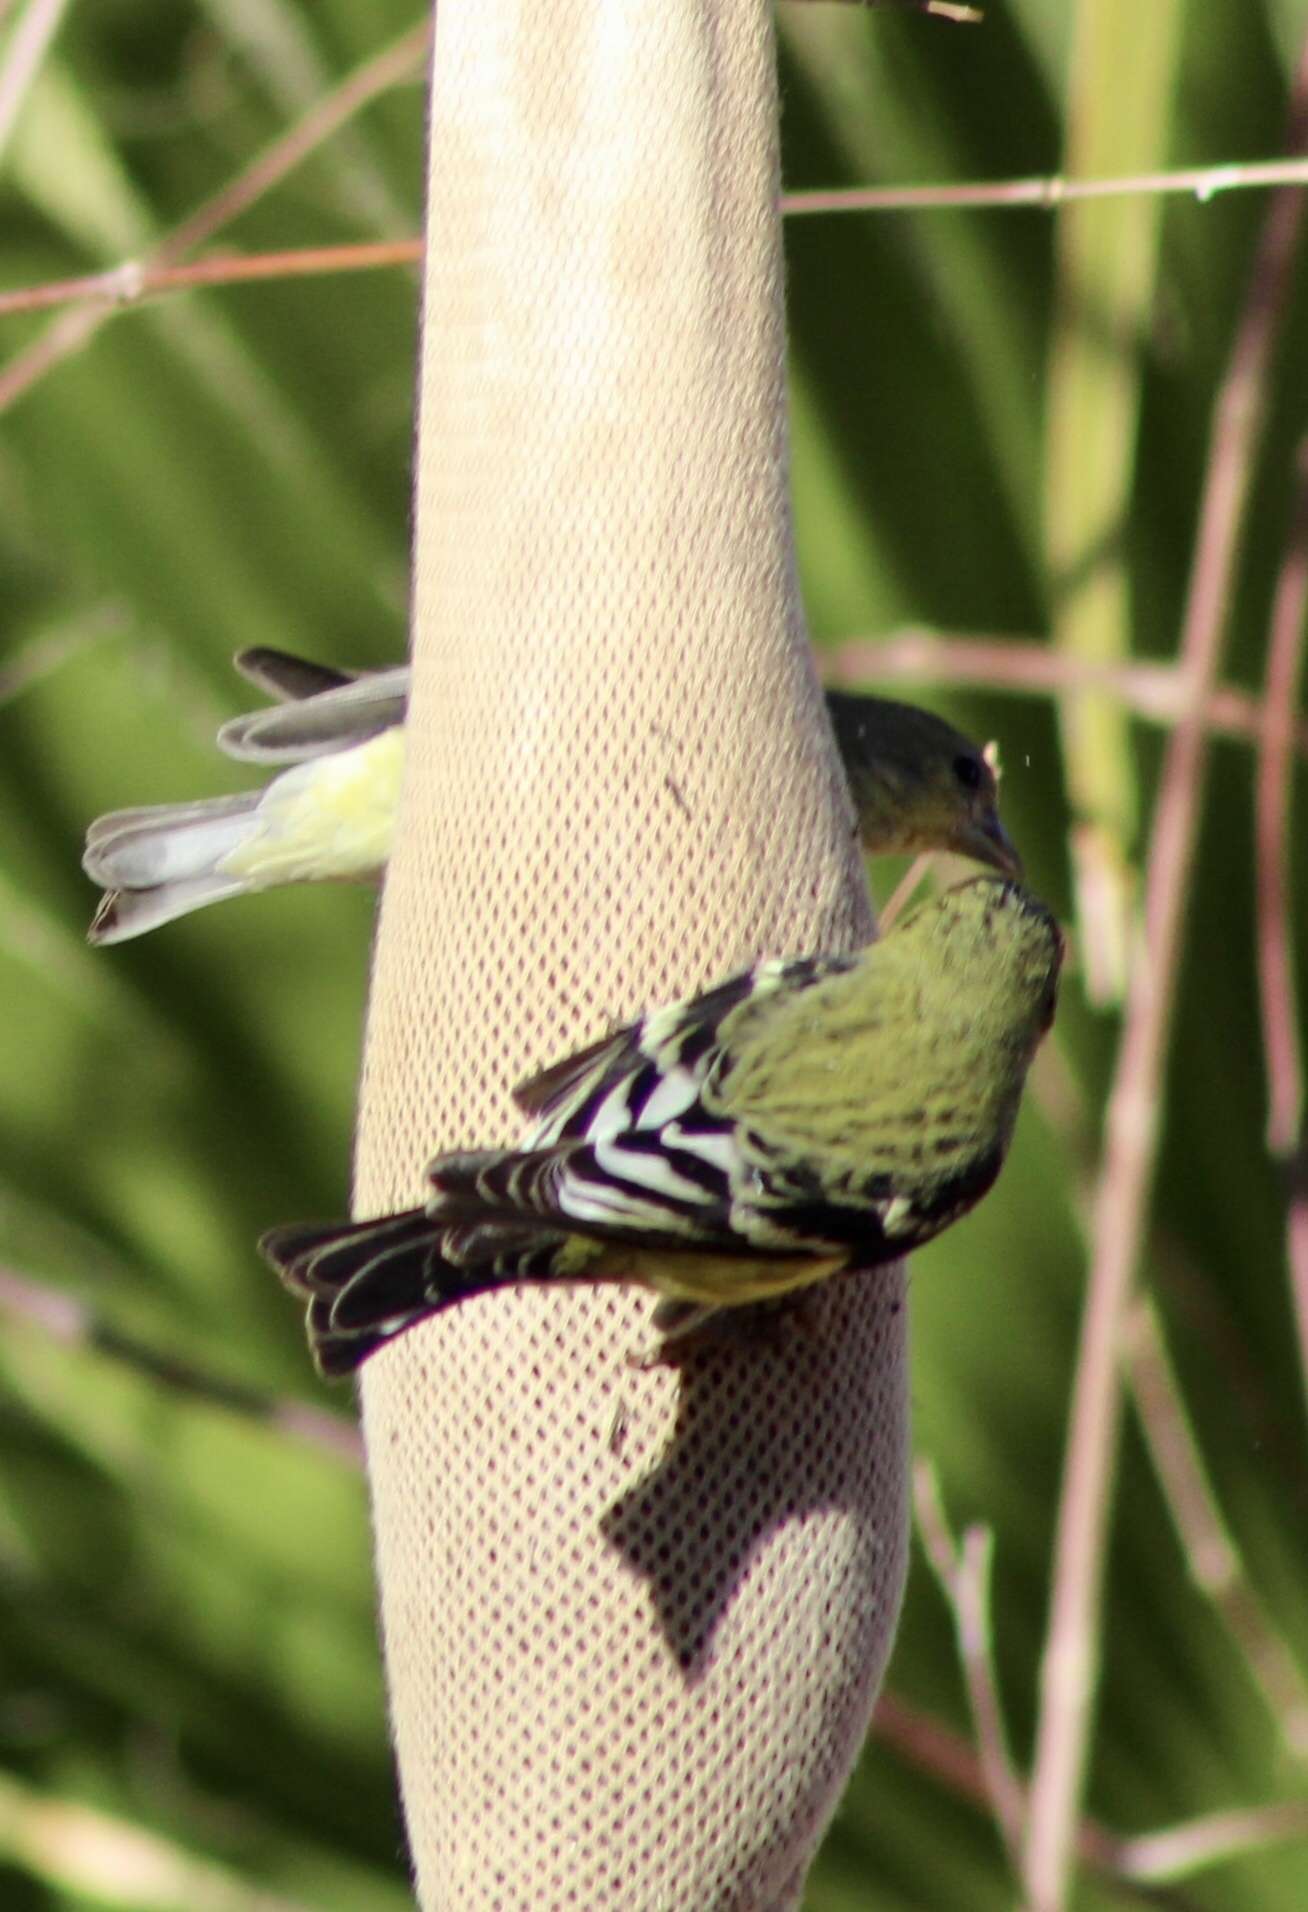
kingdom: Animalia
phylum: Chordata
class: Aves
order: Passeriformes
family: Fringillidae
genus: Spinus
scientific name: Spinus psaltria
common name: Lesser goldfinch
